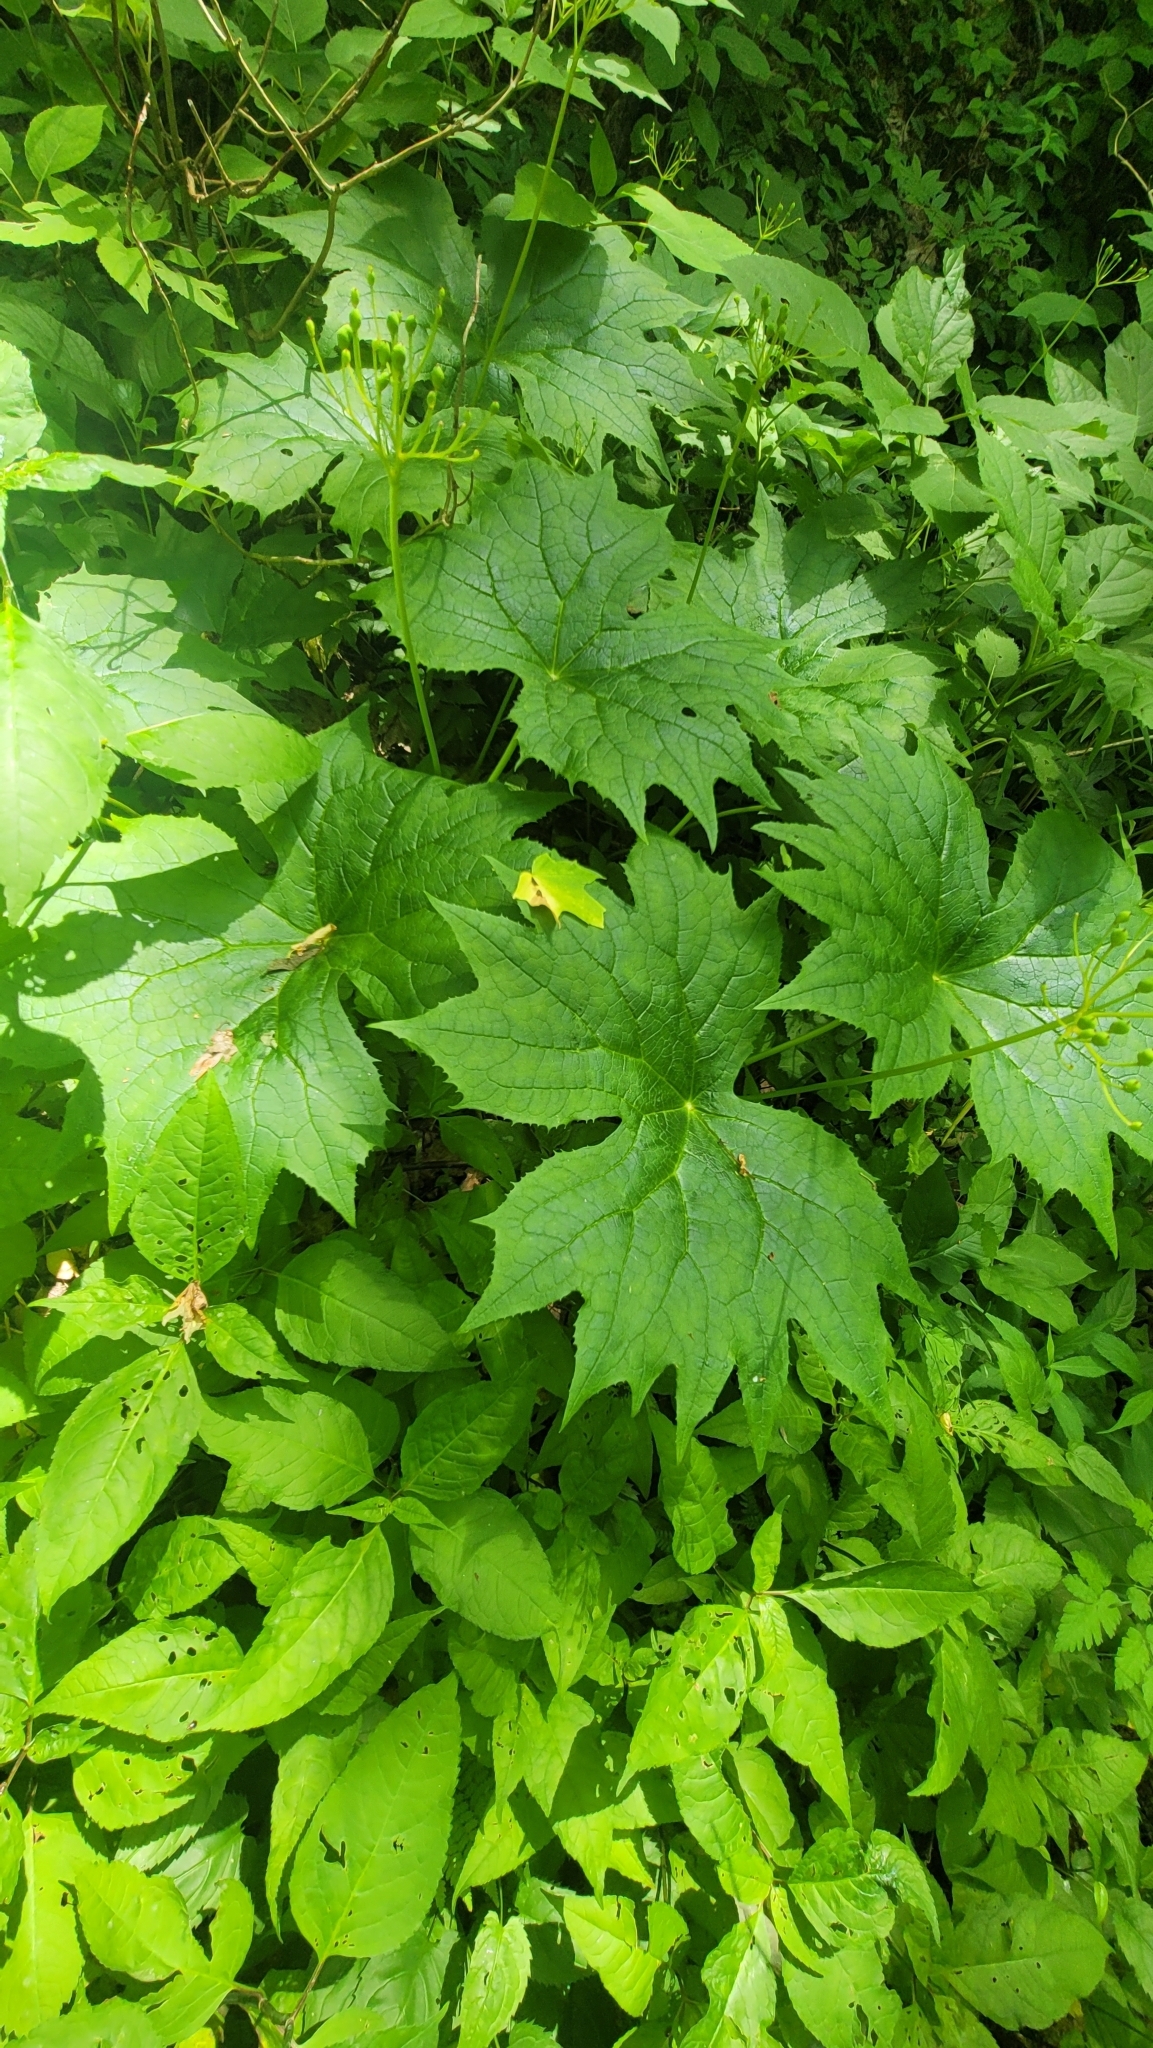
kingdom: Plantae
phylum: Tracheophyta
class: Magnoliopsida
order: Ranunculales
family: Berberidaceae
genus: Diphylleia
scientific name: Diphylleia cymosa
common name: Umbrella-leaf
